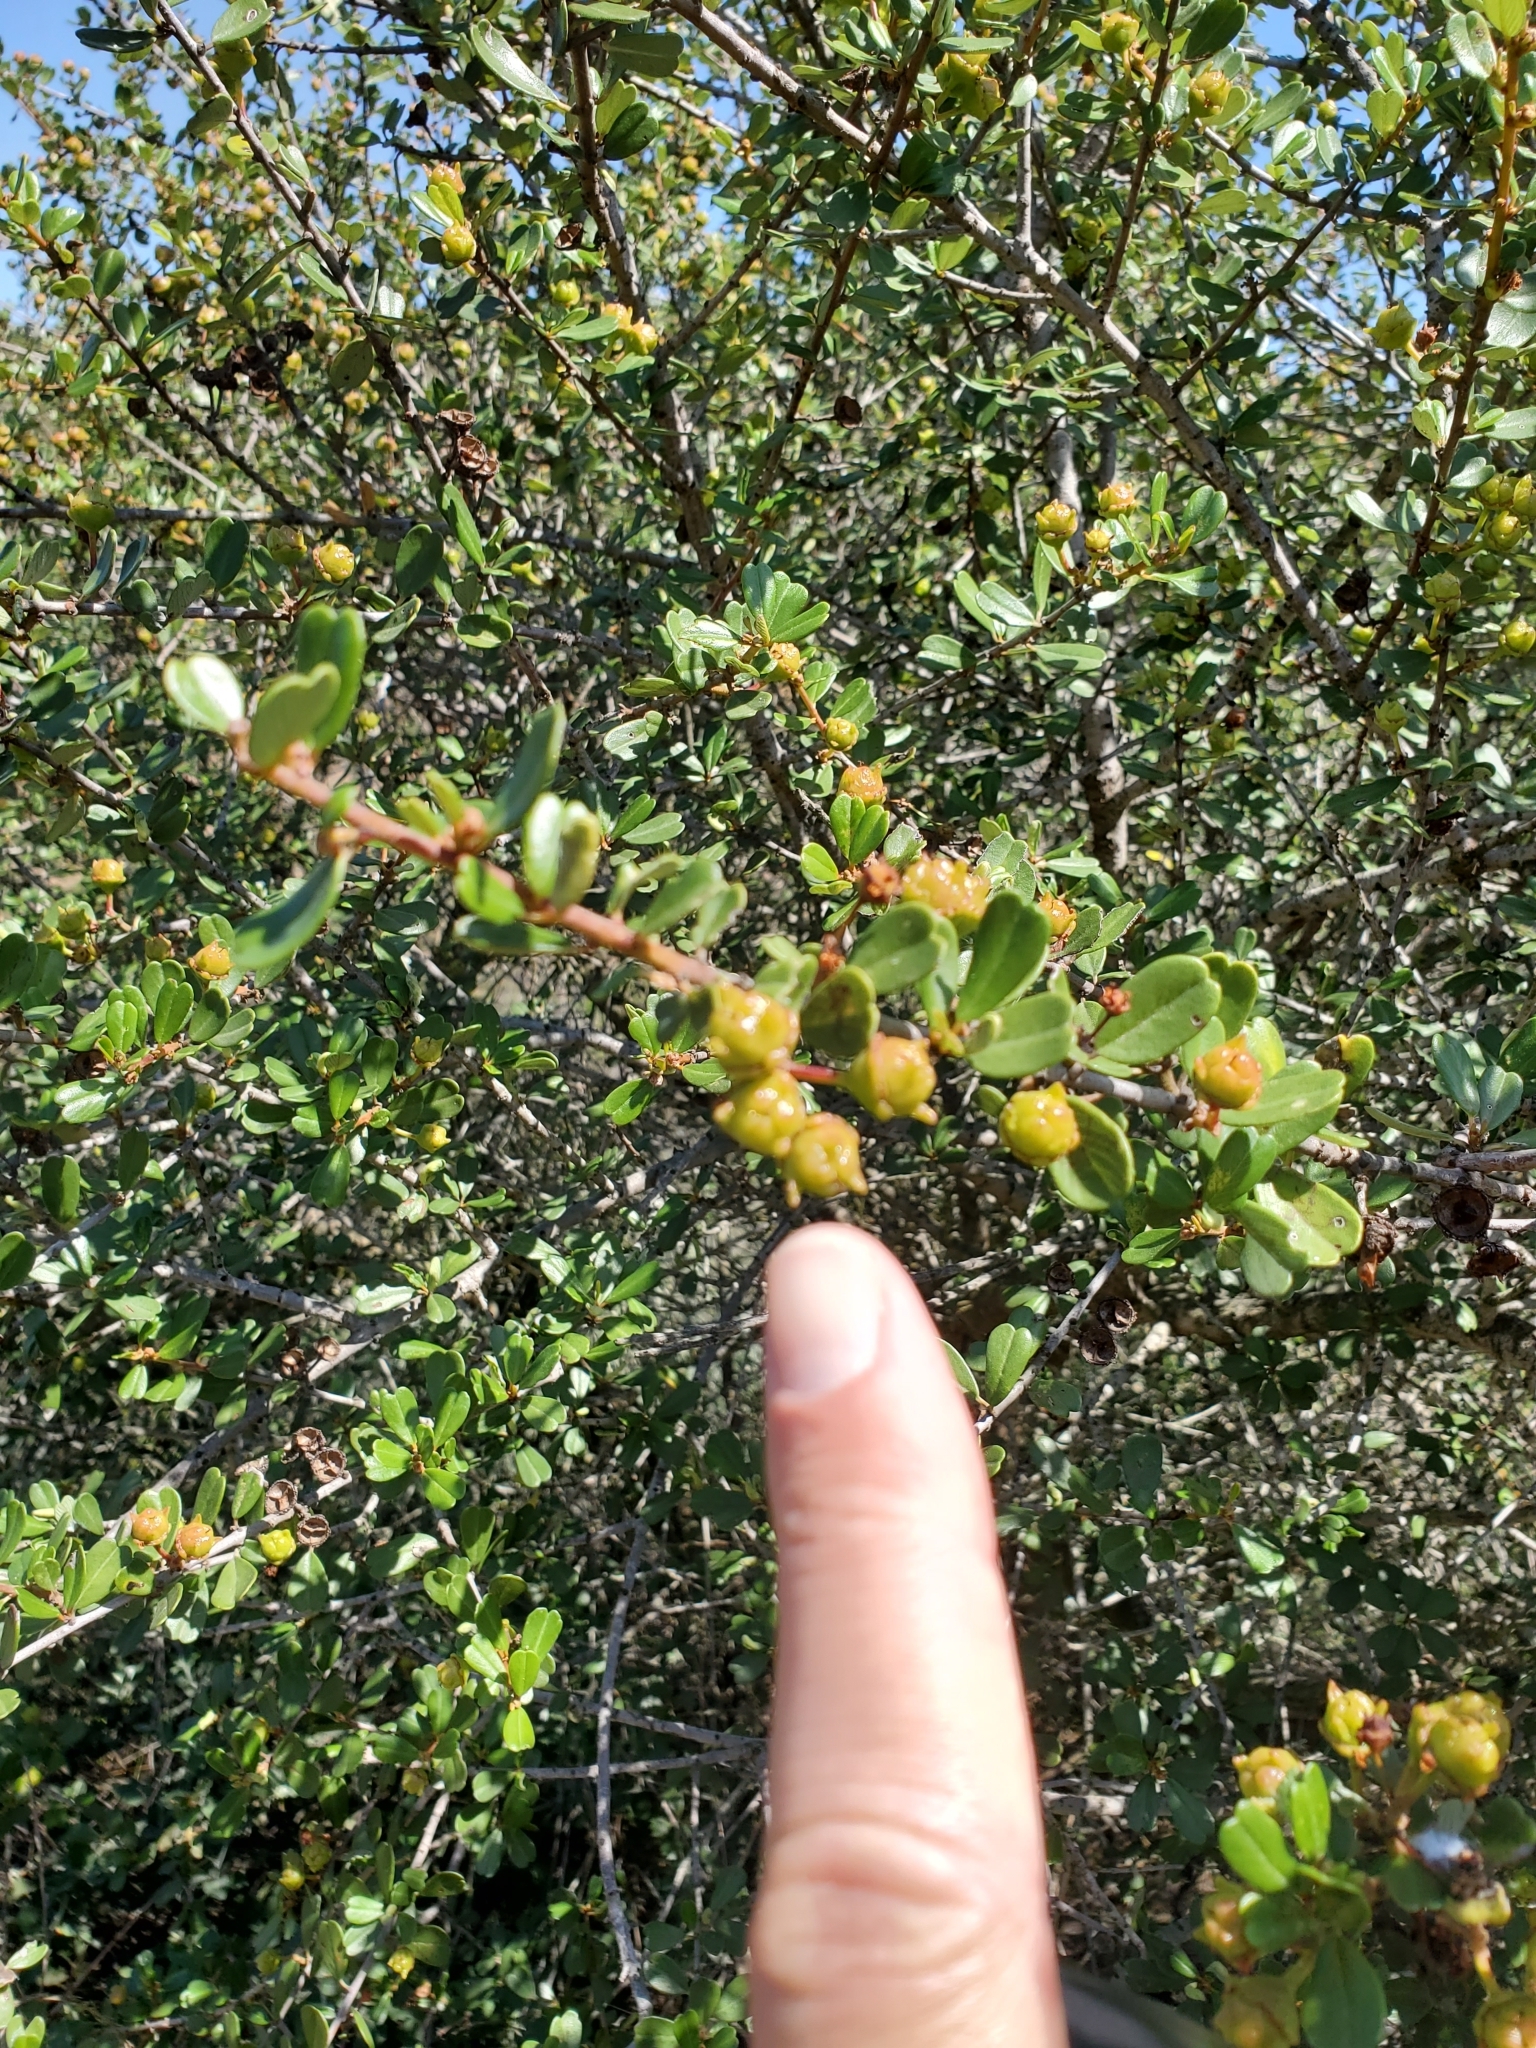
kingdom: Plantae
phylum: Tracheophyta
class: Magnoliopsida
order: Rosales
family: Rhamnaceae
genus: Ceanothus
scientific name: Ceanothus megacarpus
